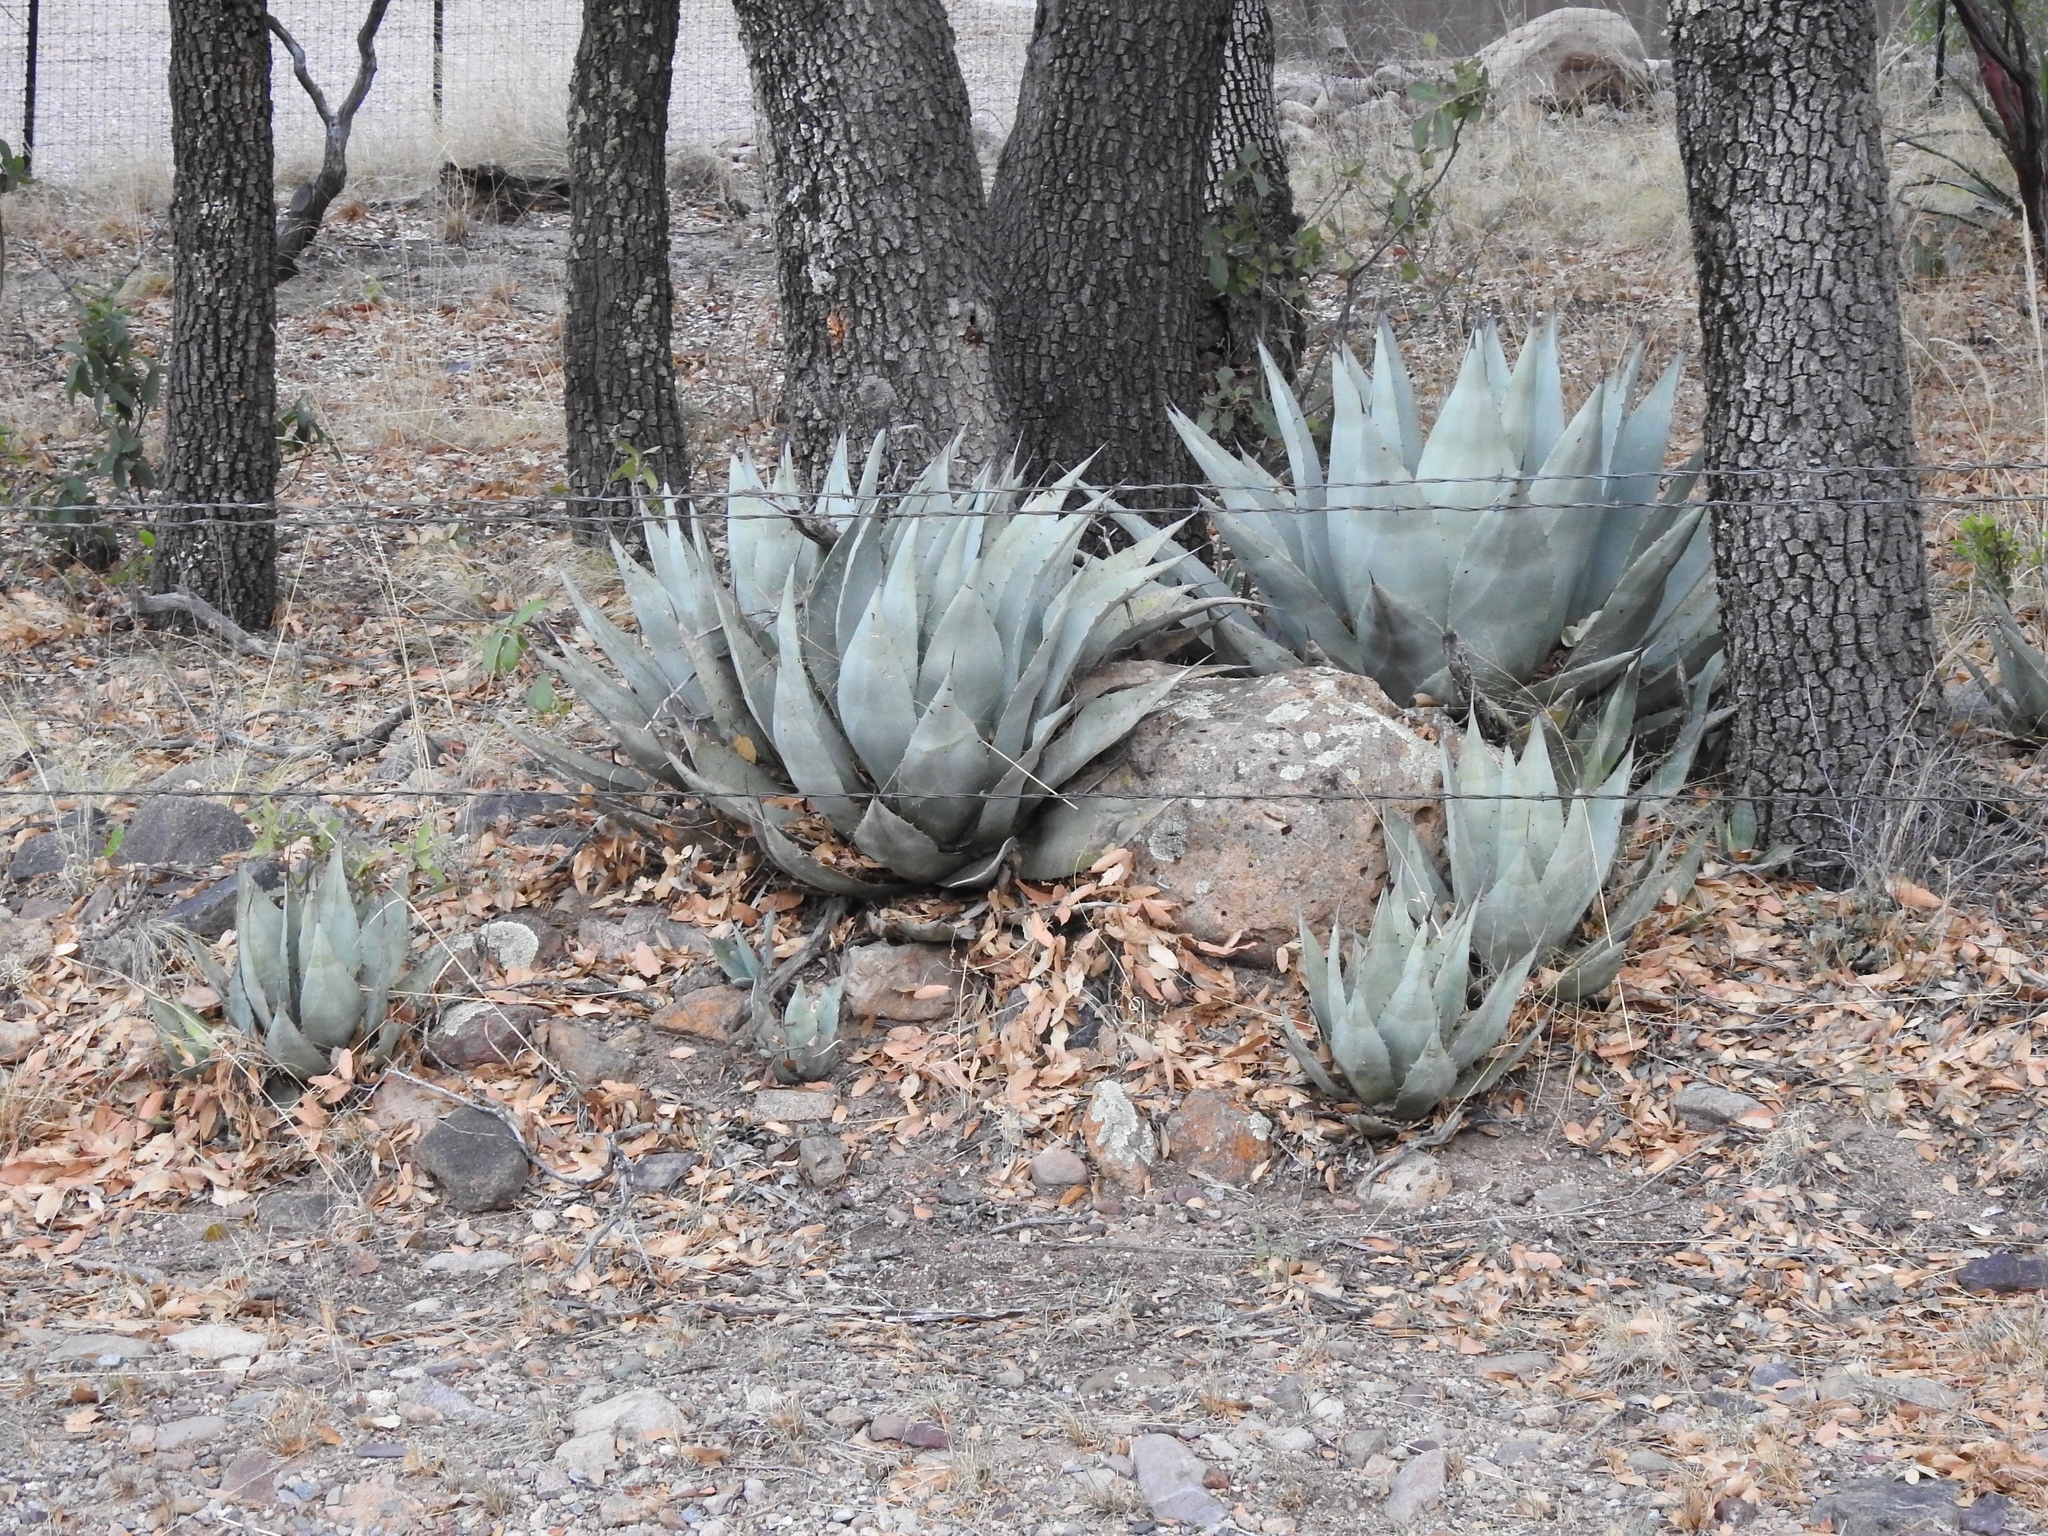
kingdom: Plantae
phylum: Tracheophyta
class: Liliopsida
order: Asparagales
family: Asparagaceae
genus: Agave
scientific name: Agave parryi
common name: Parry's agave
